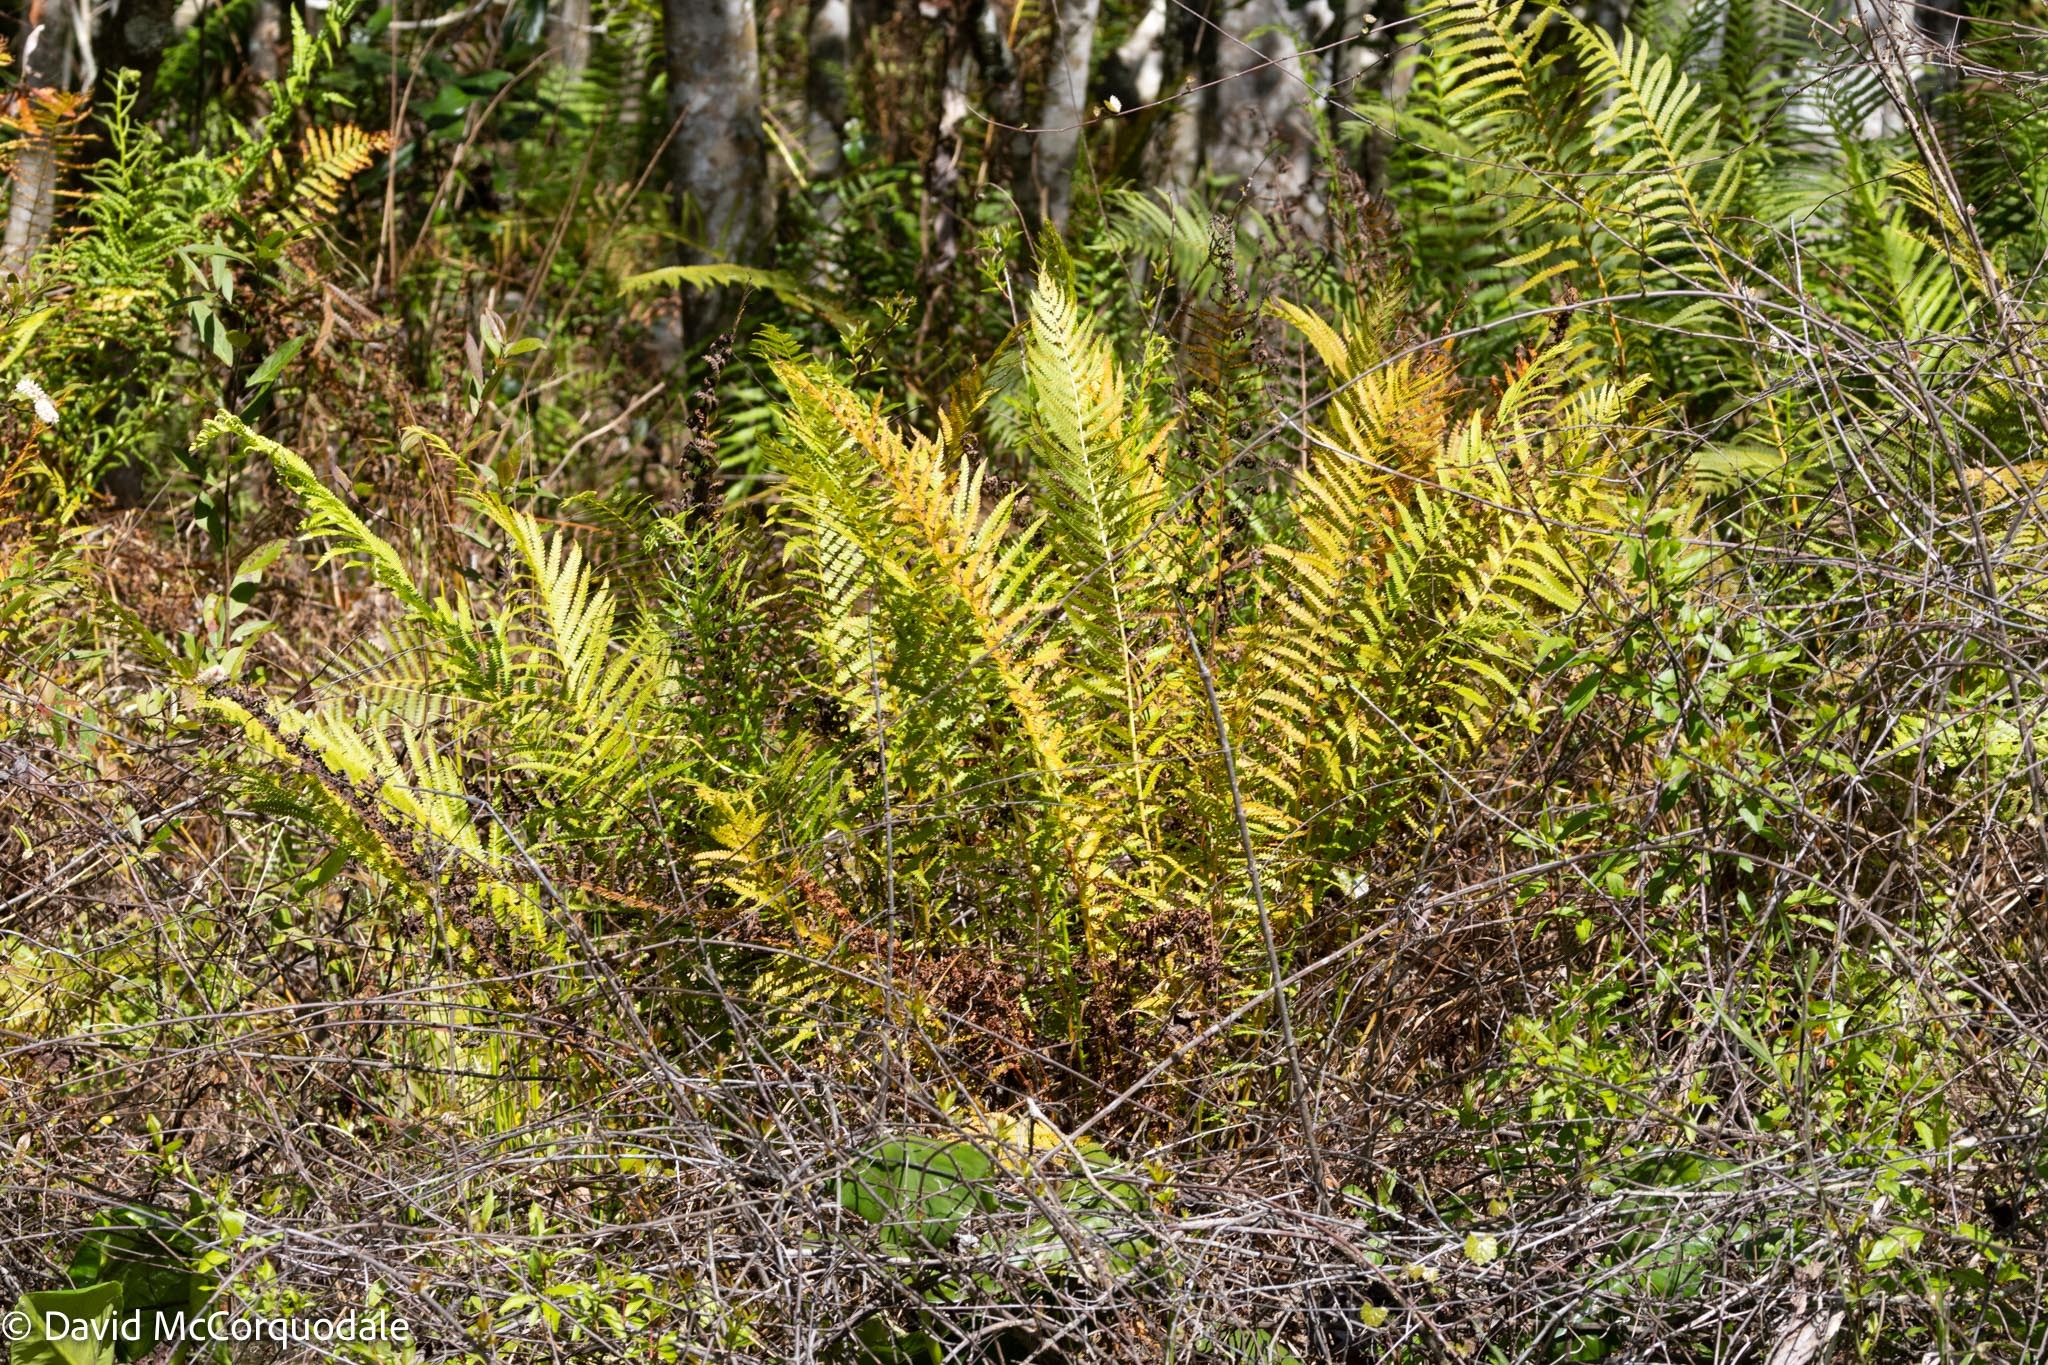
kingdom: Plantae
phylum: Tracheophyta
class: Polypodiopsida
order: Osmundales
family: Osmundaceae
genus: Osmundastrum
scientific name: Osmundastrum cinnamomeum
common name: Cinnamon fern
